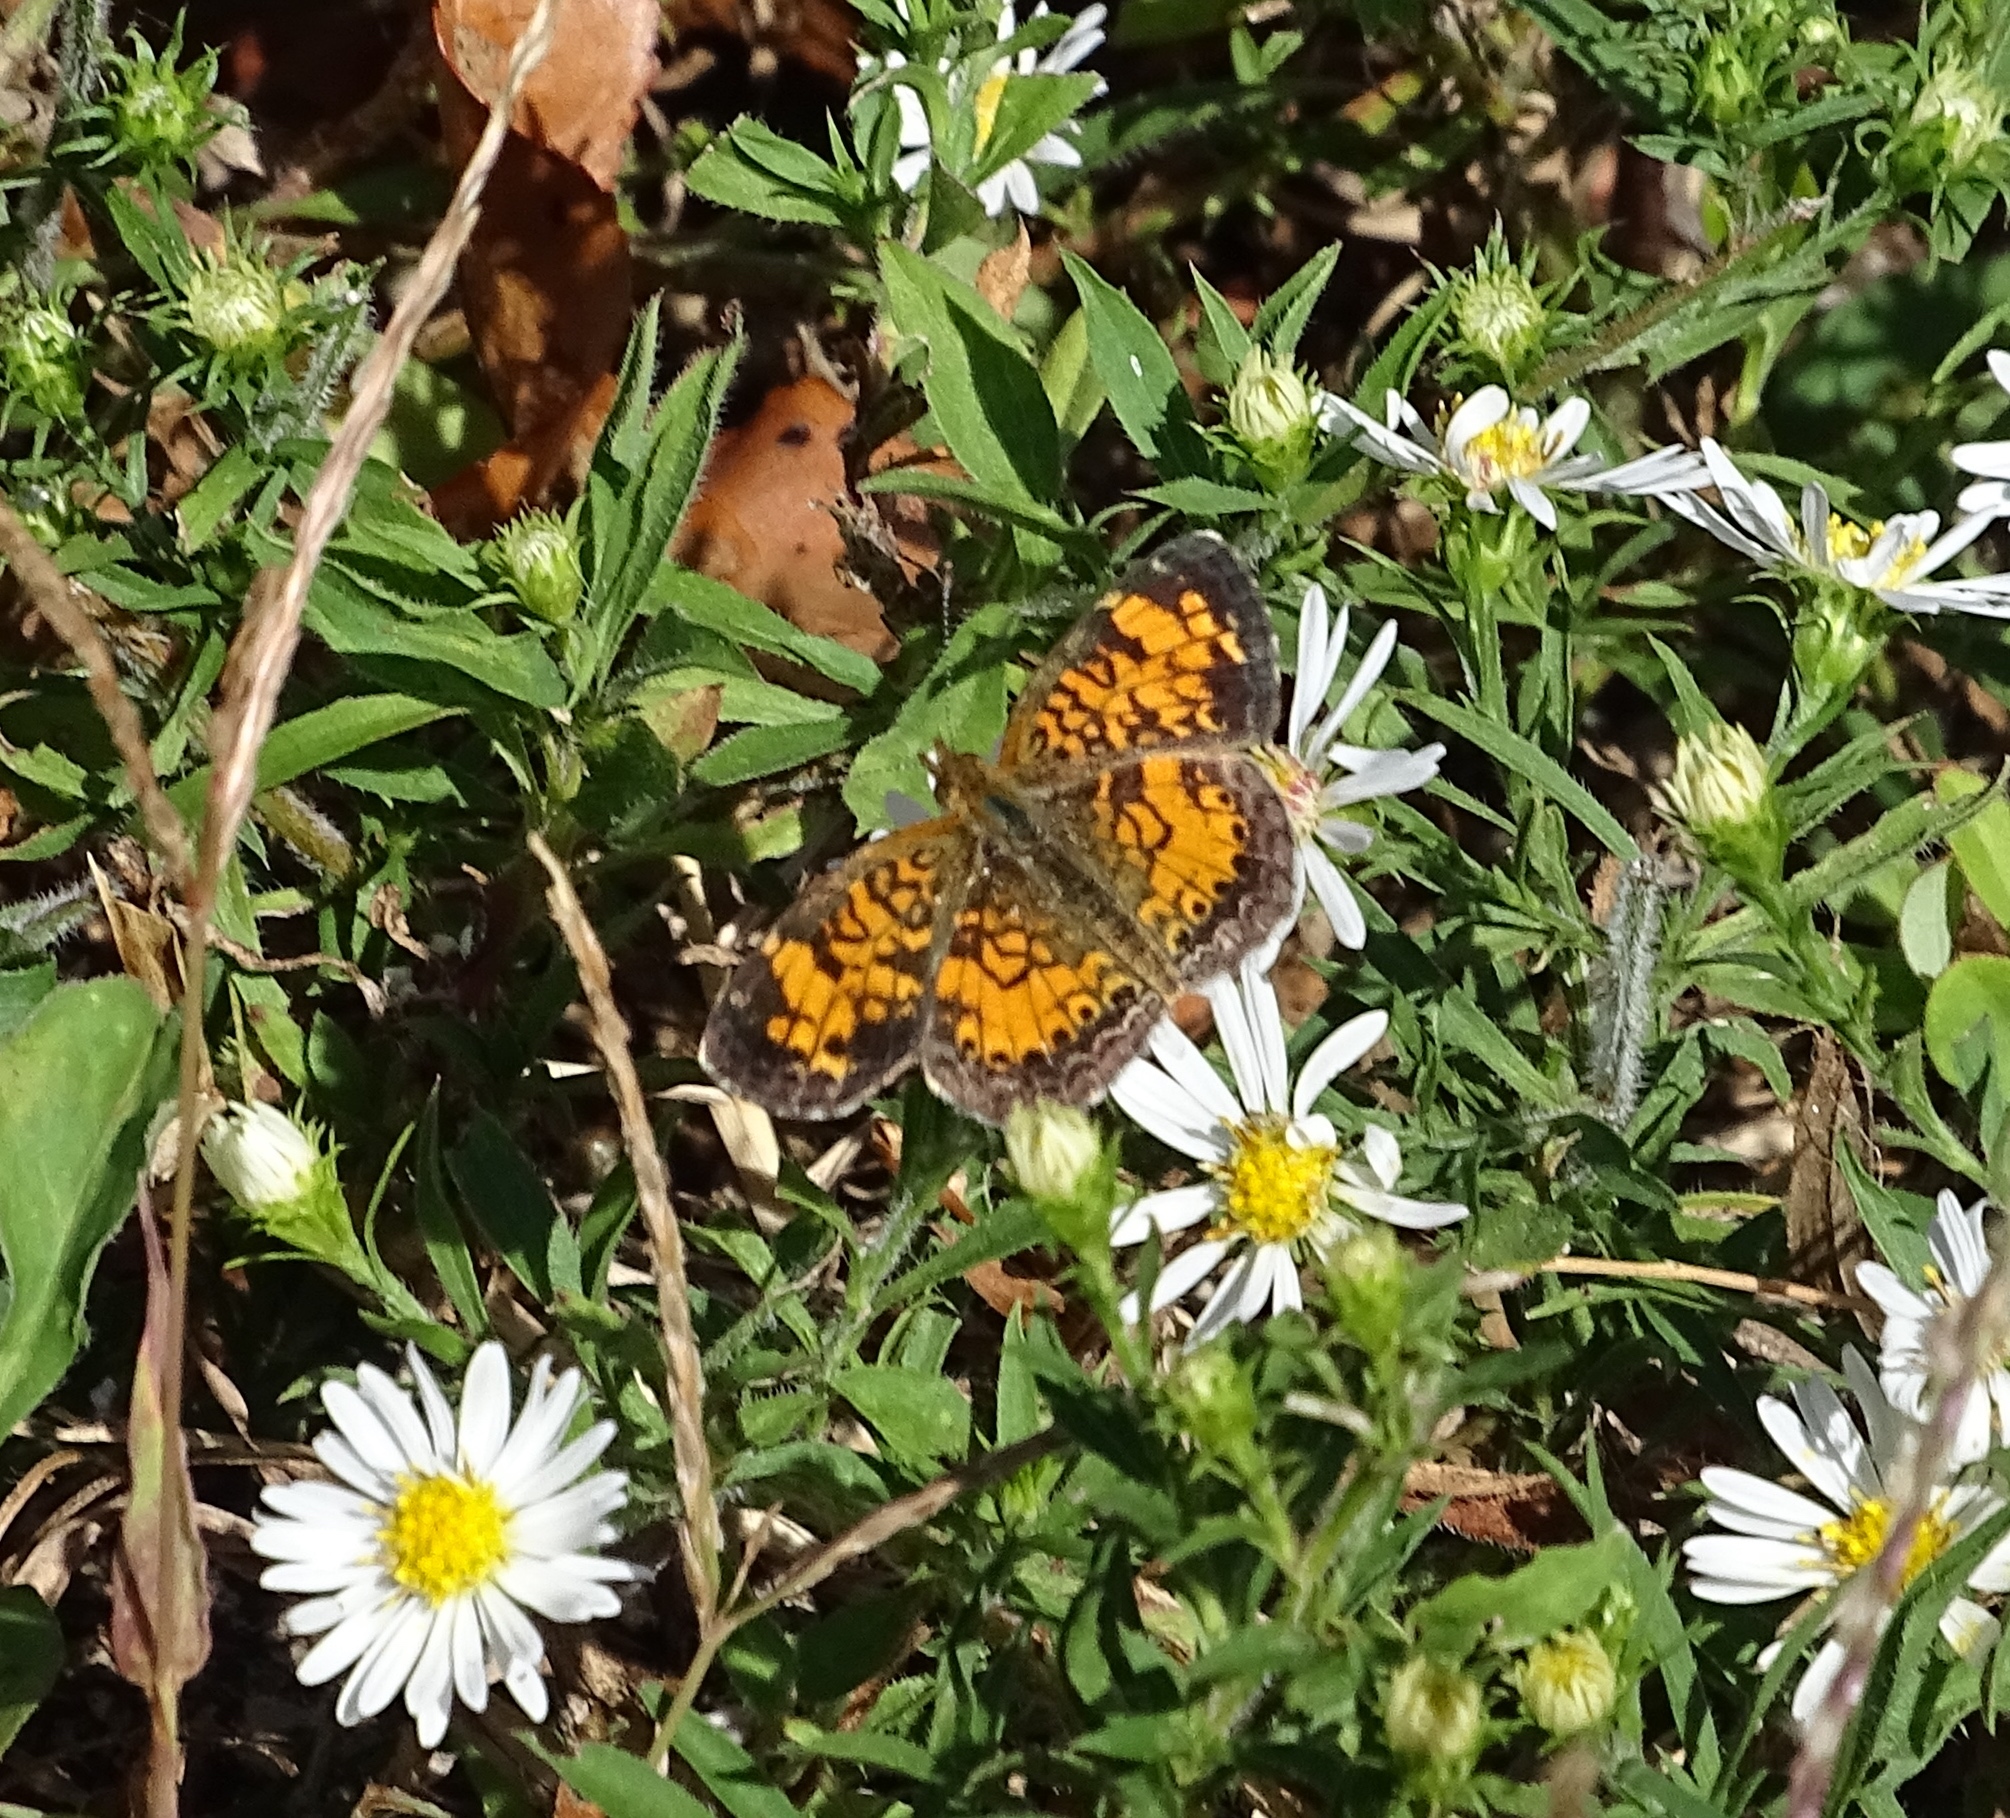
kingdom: Animalia
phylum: Arthropoda
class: Insecta
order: Lepidoptera
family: Nymphalidae
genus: Phyciodes
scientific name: Phyciodes tharos
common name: Pearl crescent
